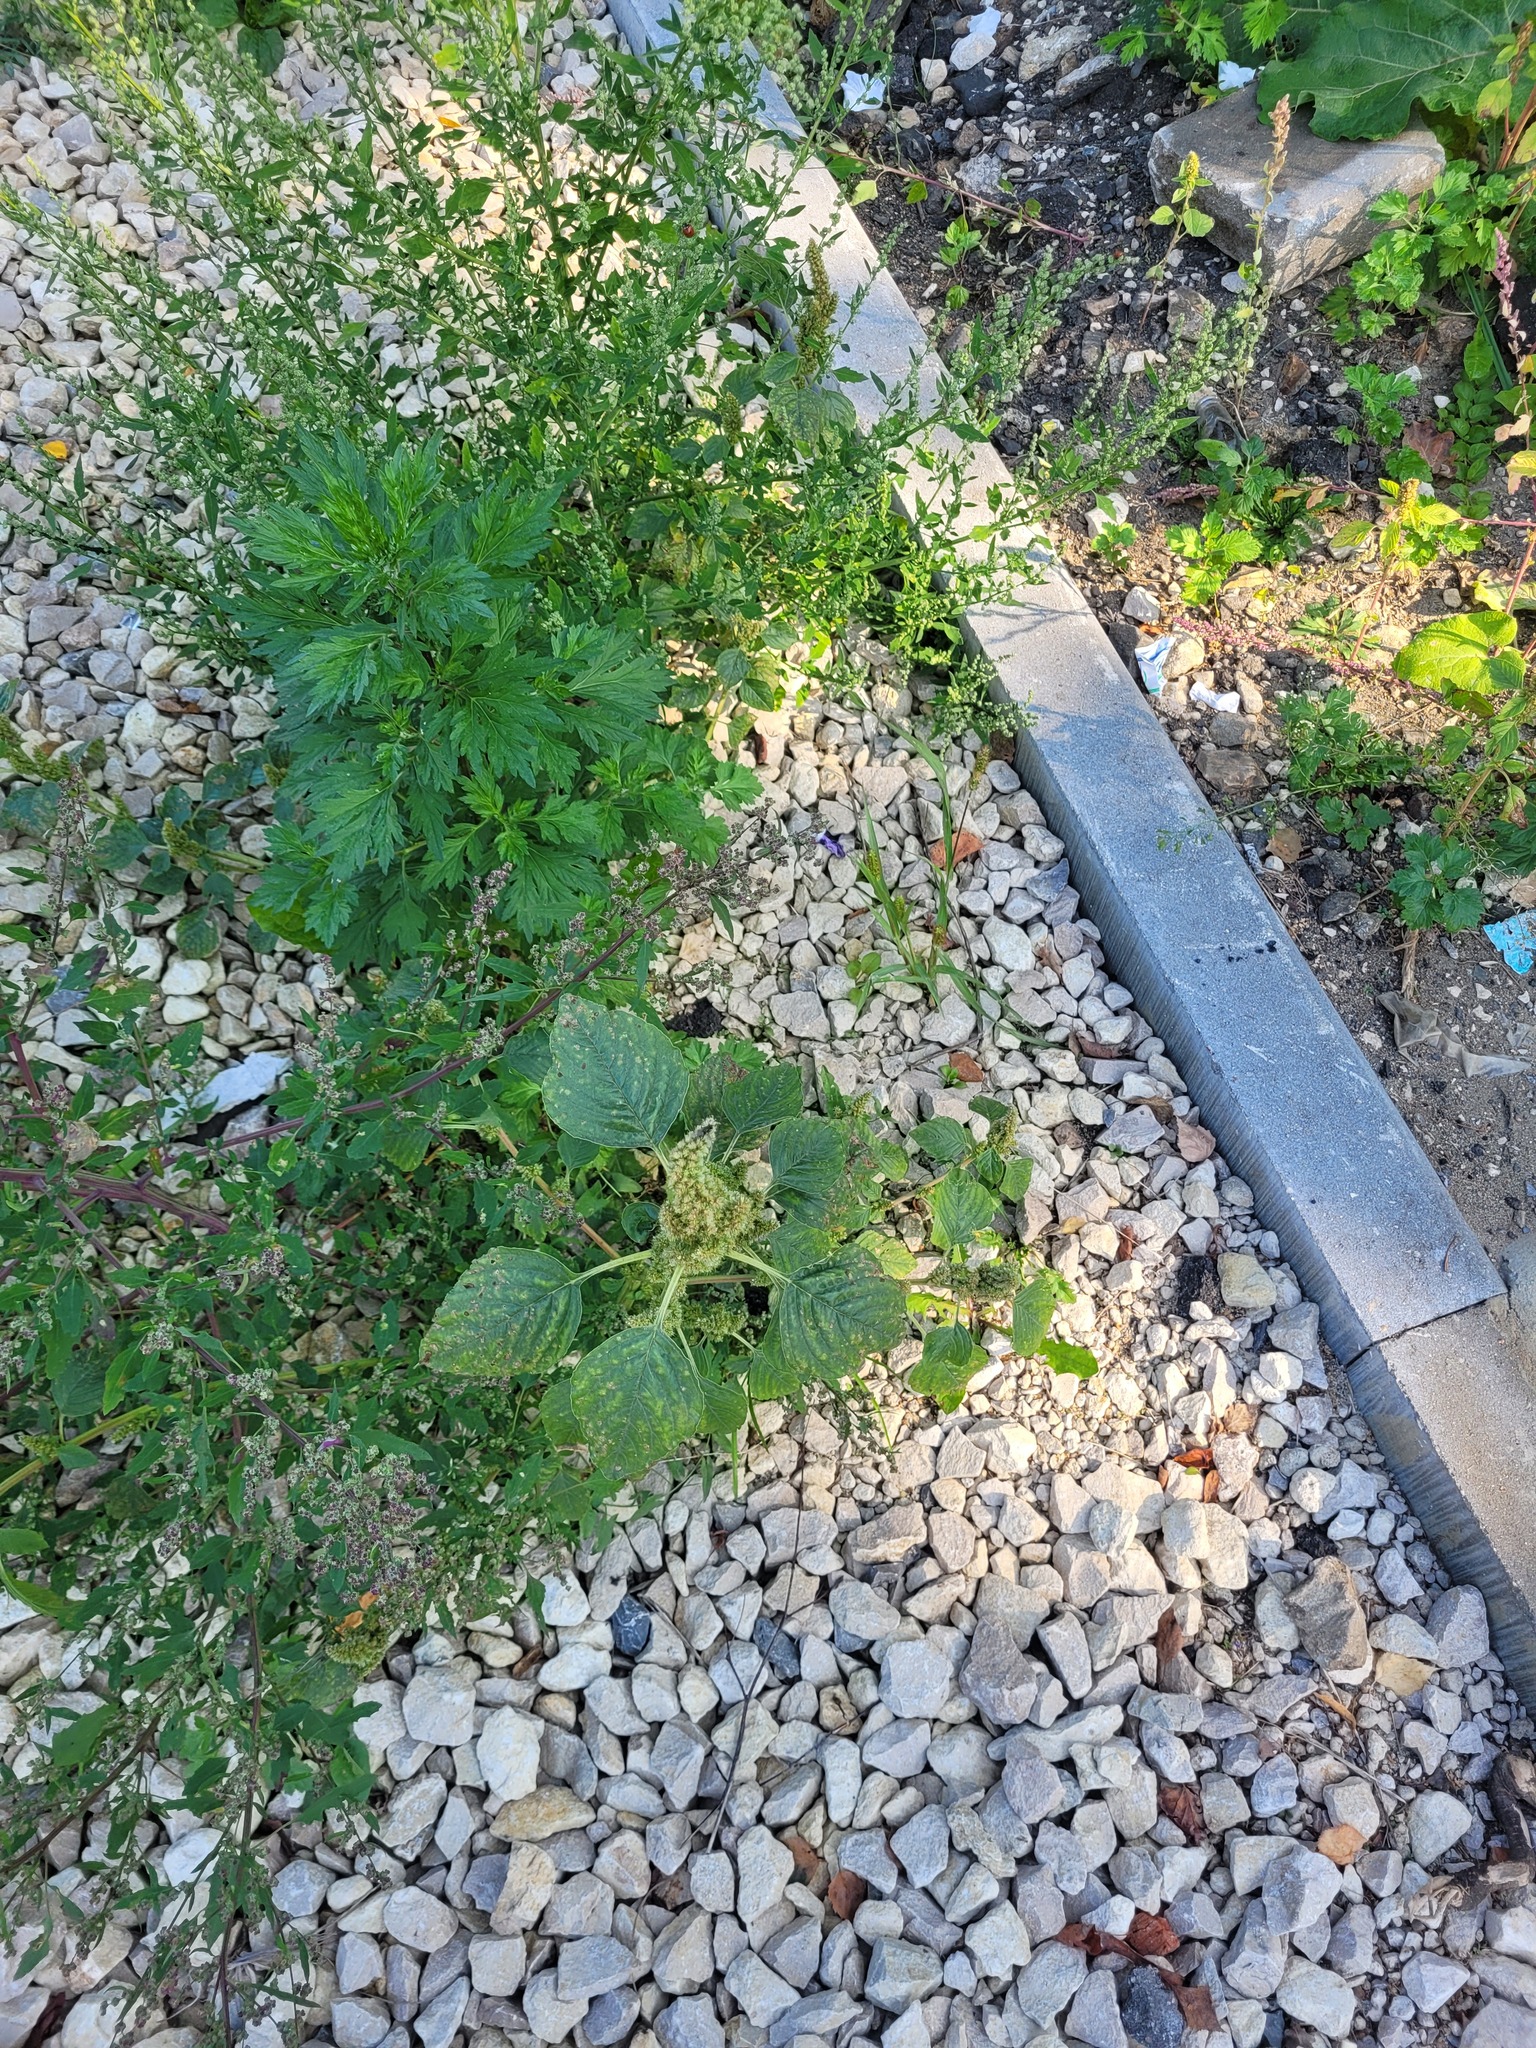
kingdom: Plantae
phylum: Tracheophyta
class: Magnoliopsida
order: Caryophyllales
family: Amaranthaceae
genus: Amaranthus
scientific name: Amaranthus retroflexus
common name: Redroot amaranth
